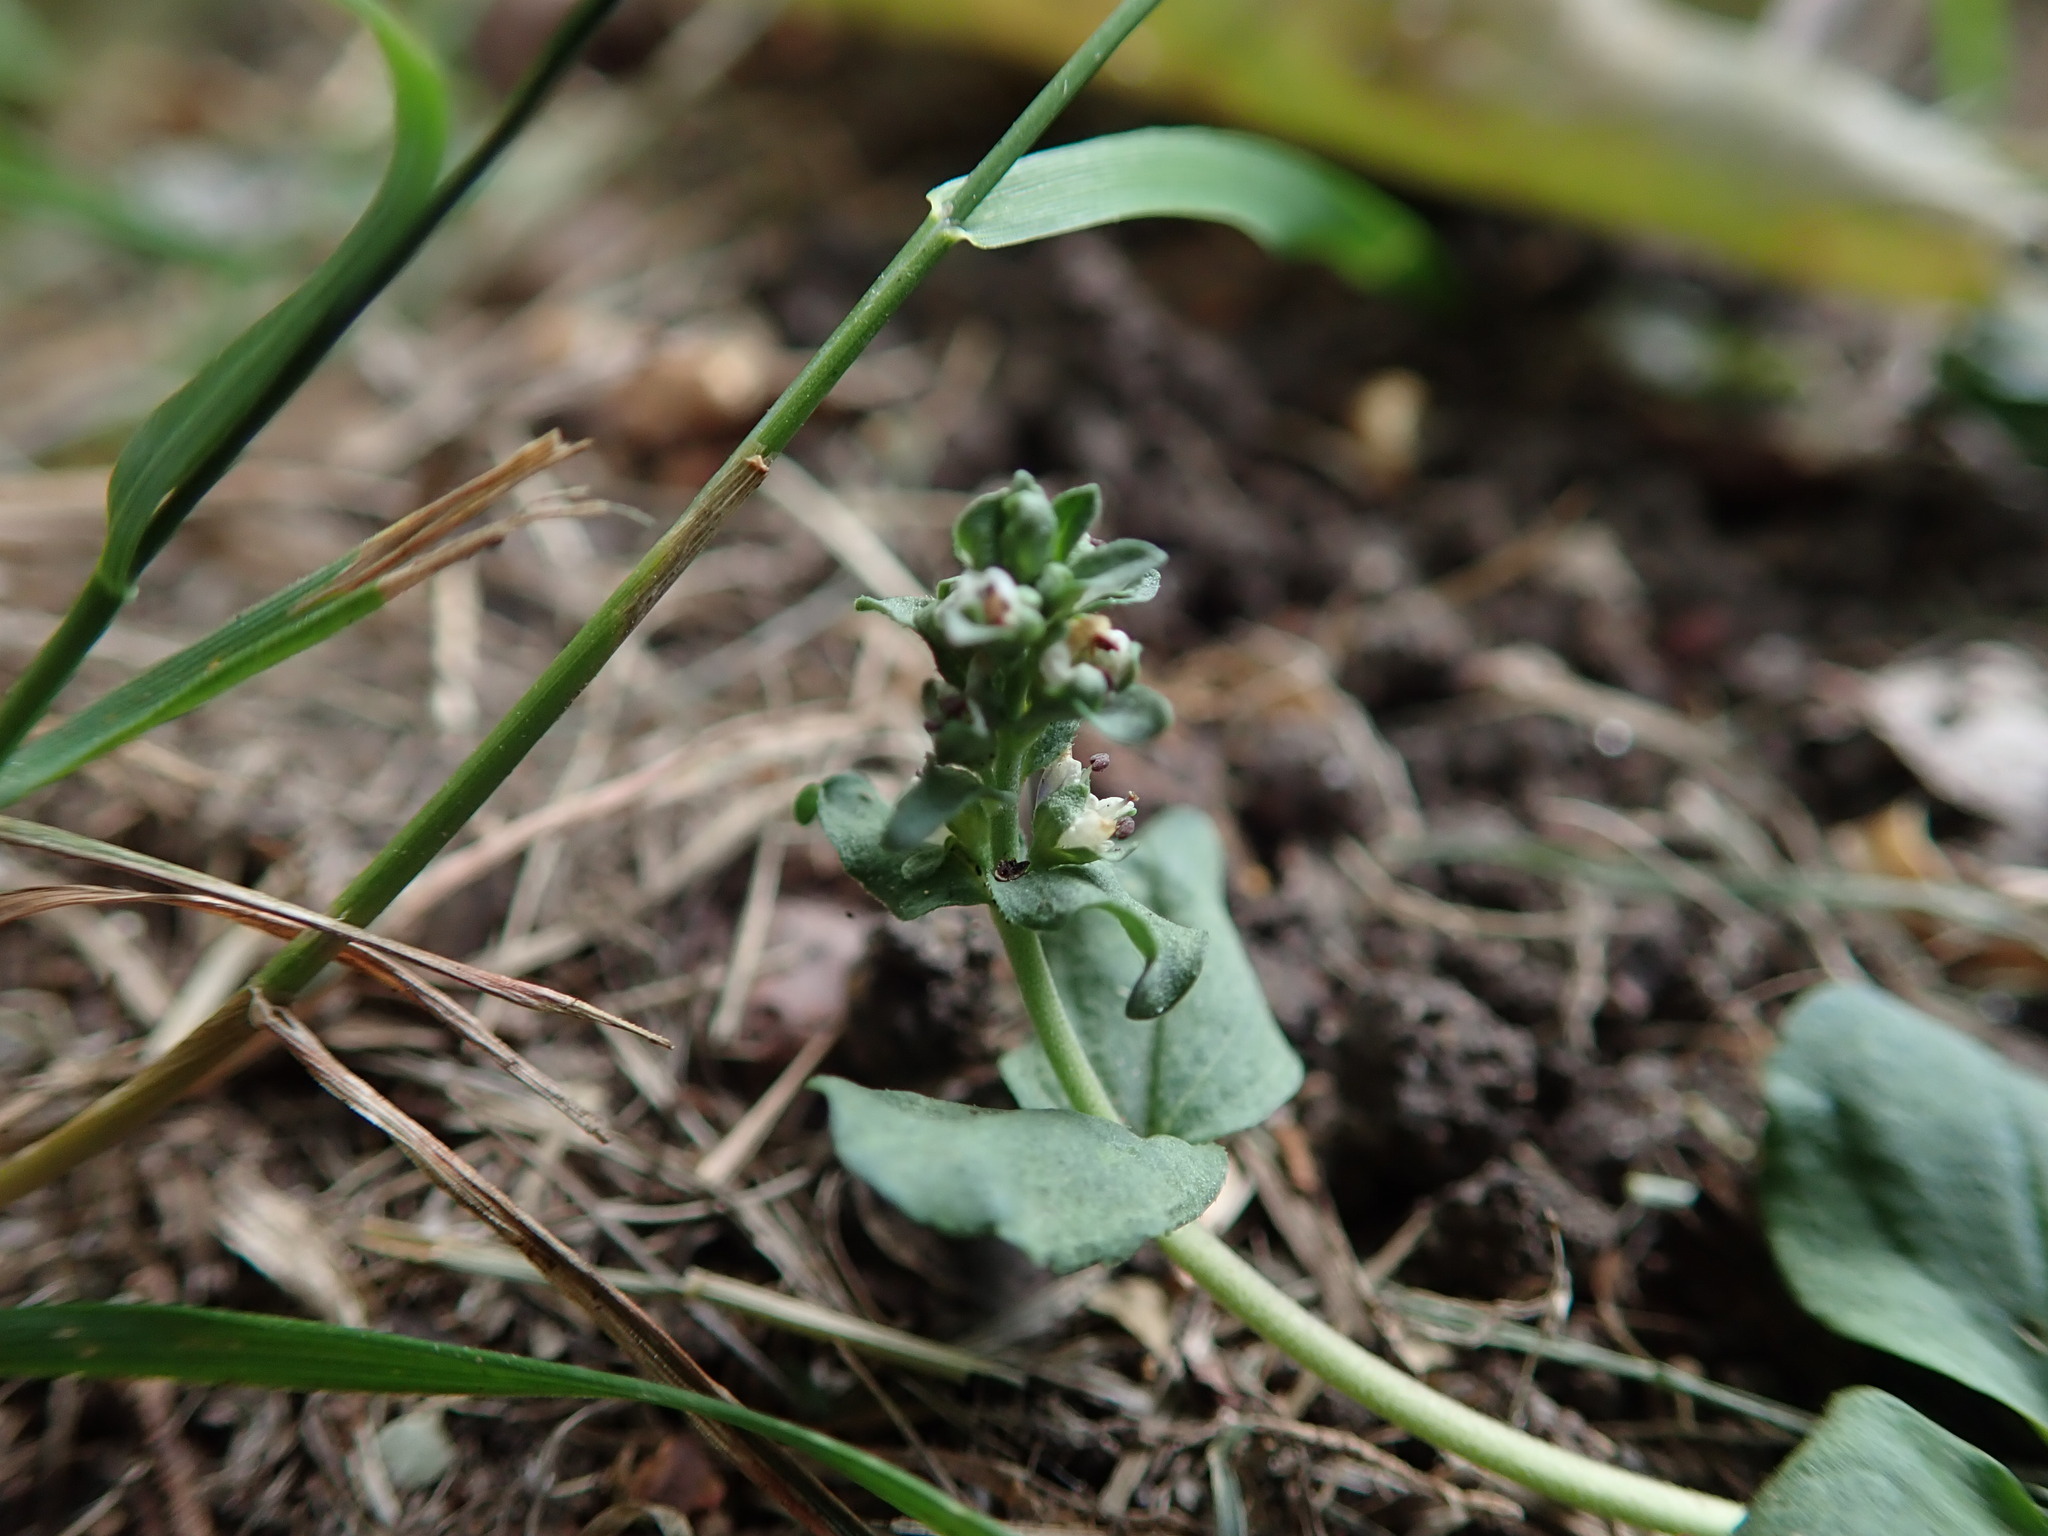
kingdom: Plantae
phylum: Tracheophyta
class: Magnoliopsida
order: Lamiales
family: Plantaginaceae
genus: Veronica
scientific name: Veronica serpyllifolia
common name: Thyme-leaved speedwell
